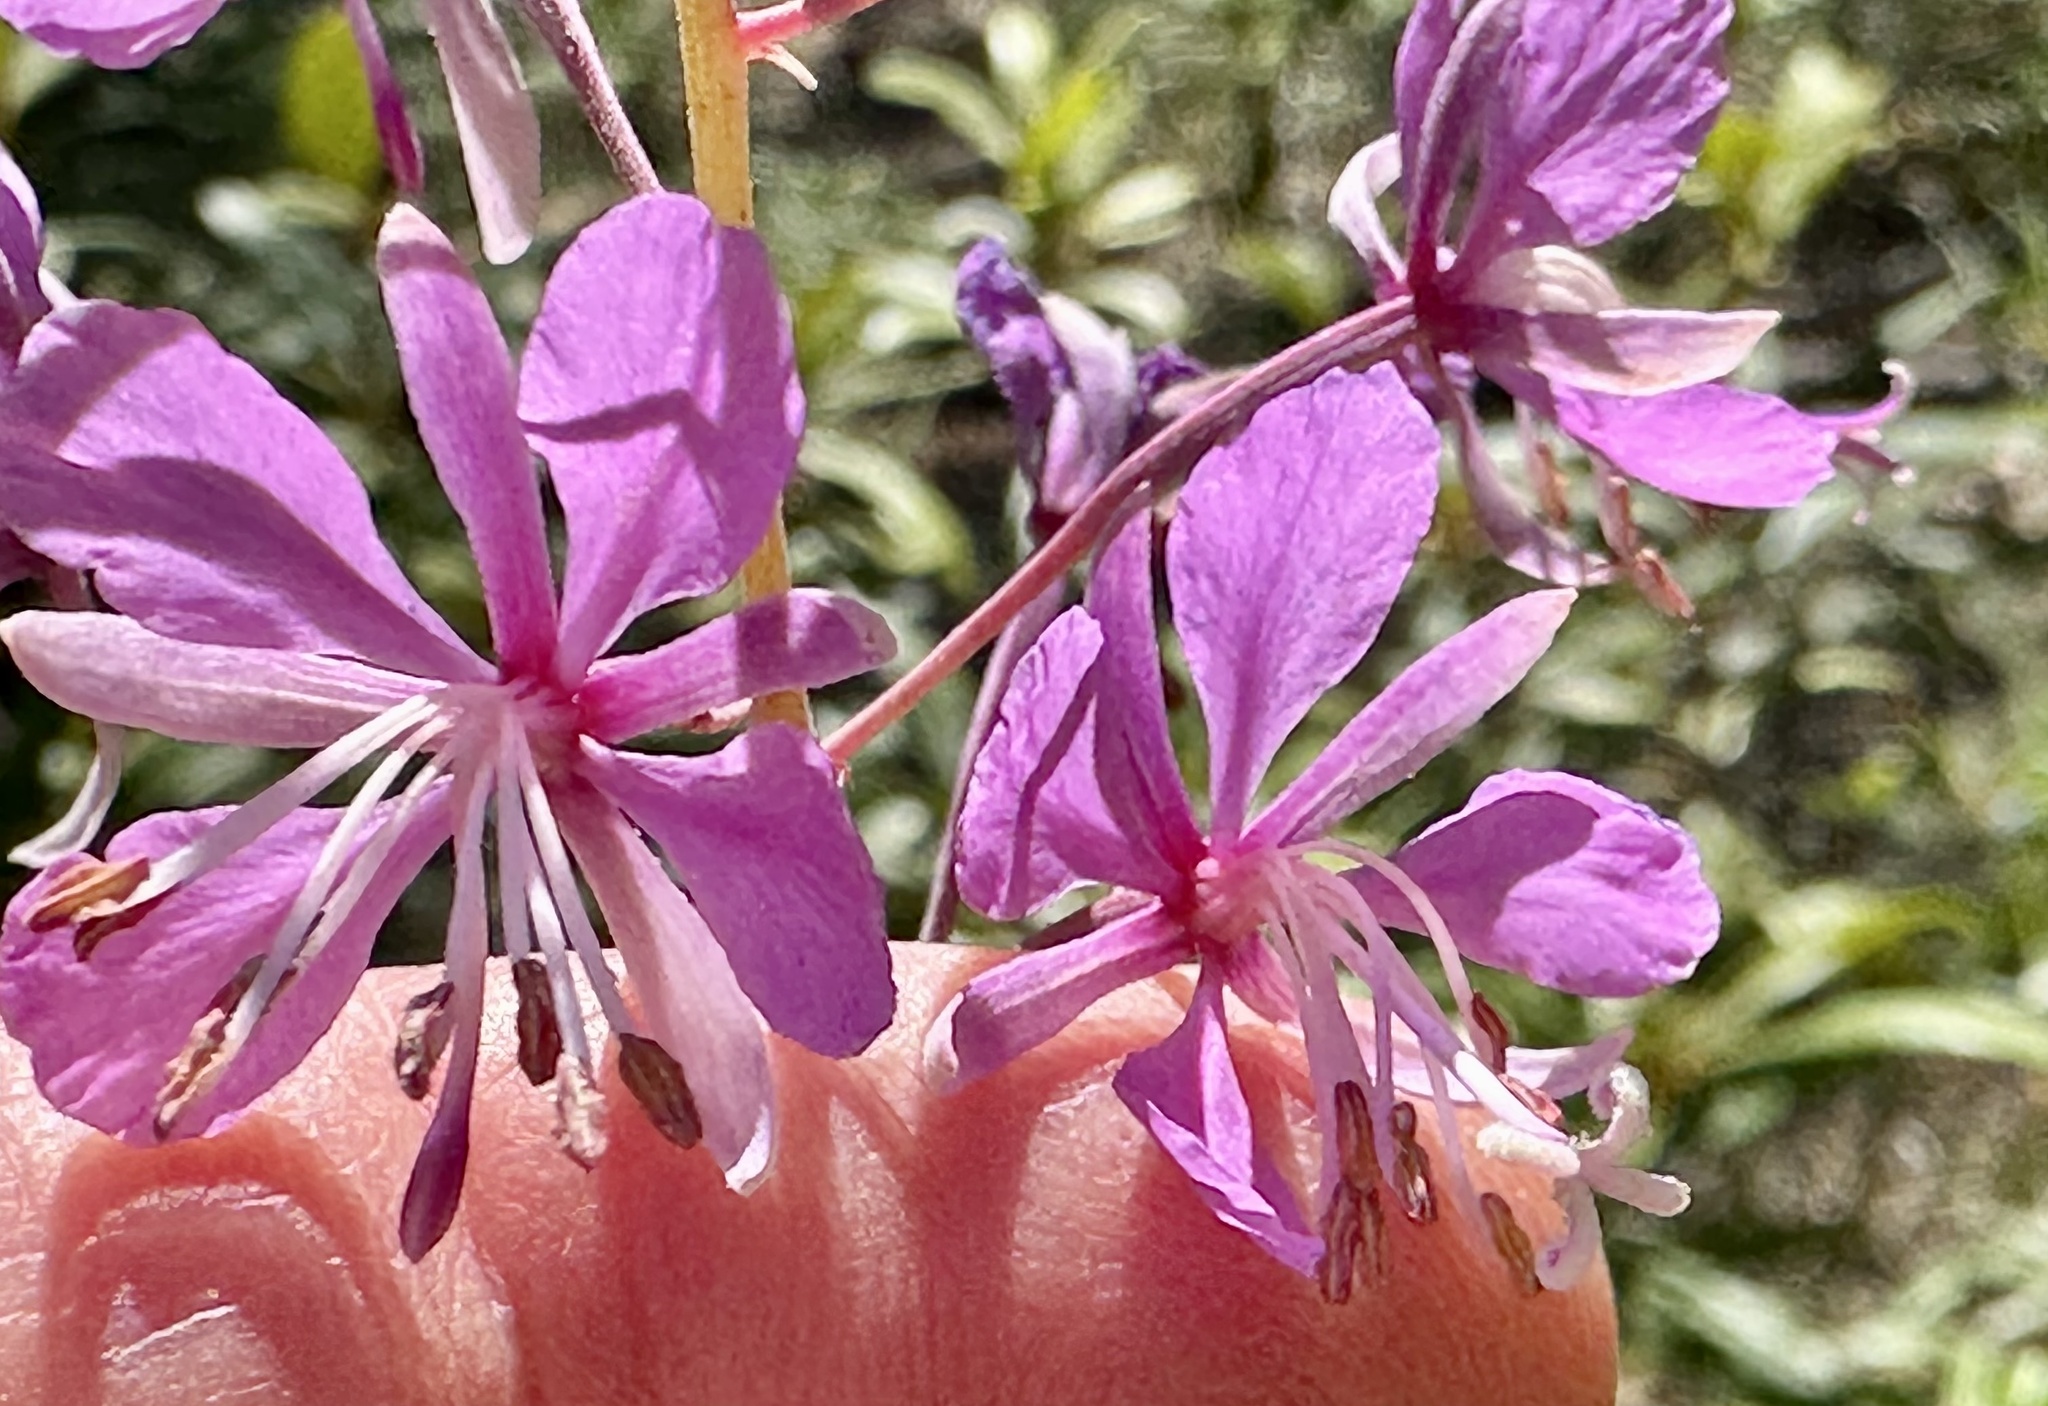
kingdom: Plantae
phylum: Tracheophyta
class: Magnoliopsida
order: Myrtales
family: Onagraceae
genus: Chamaenerion
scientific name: Chamaenerion angustifolium
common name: Fireweed
